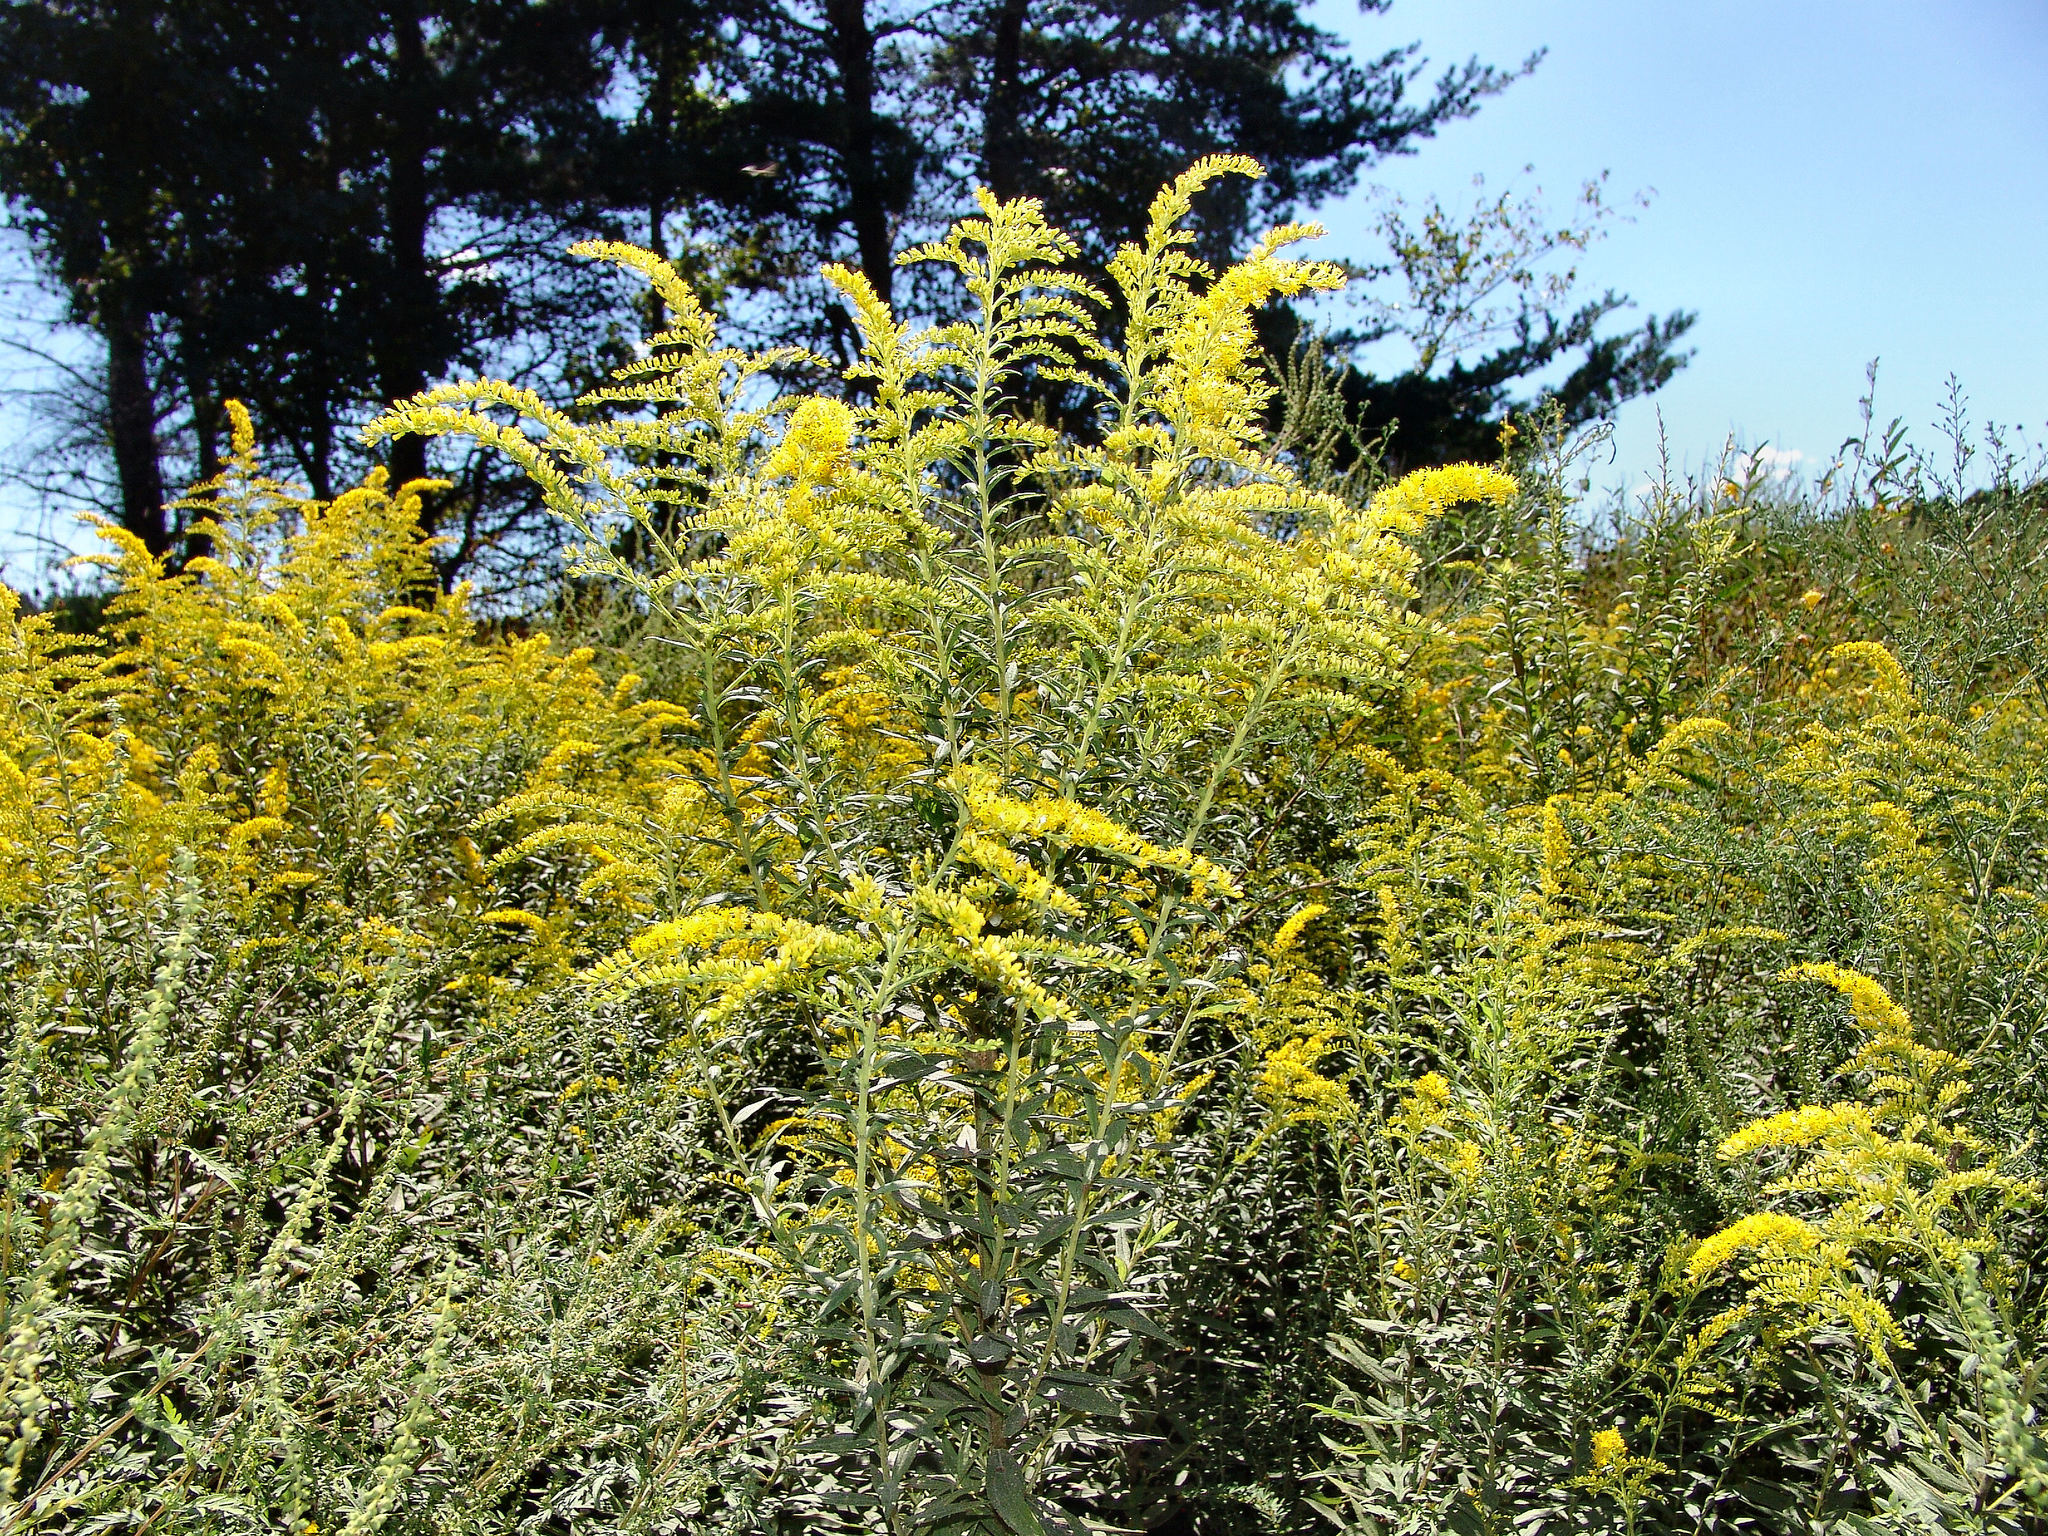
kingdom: Plantae
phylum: Tracheophyta
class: Magnoliopsida
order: Asterales
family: Asteraceae
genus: Solidago
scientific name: Solidago altissima
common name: Late goldenrod
